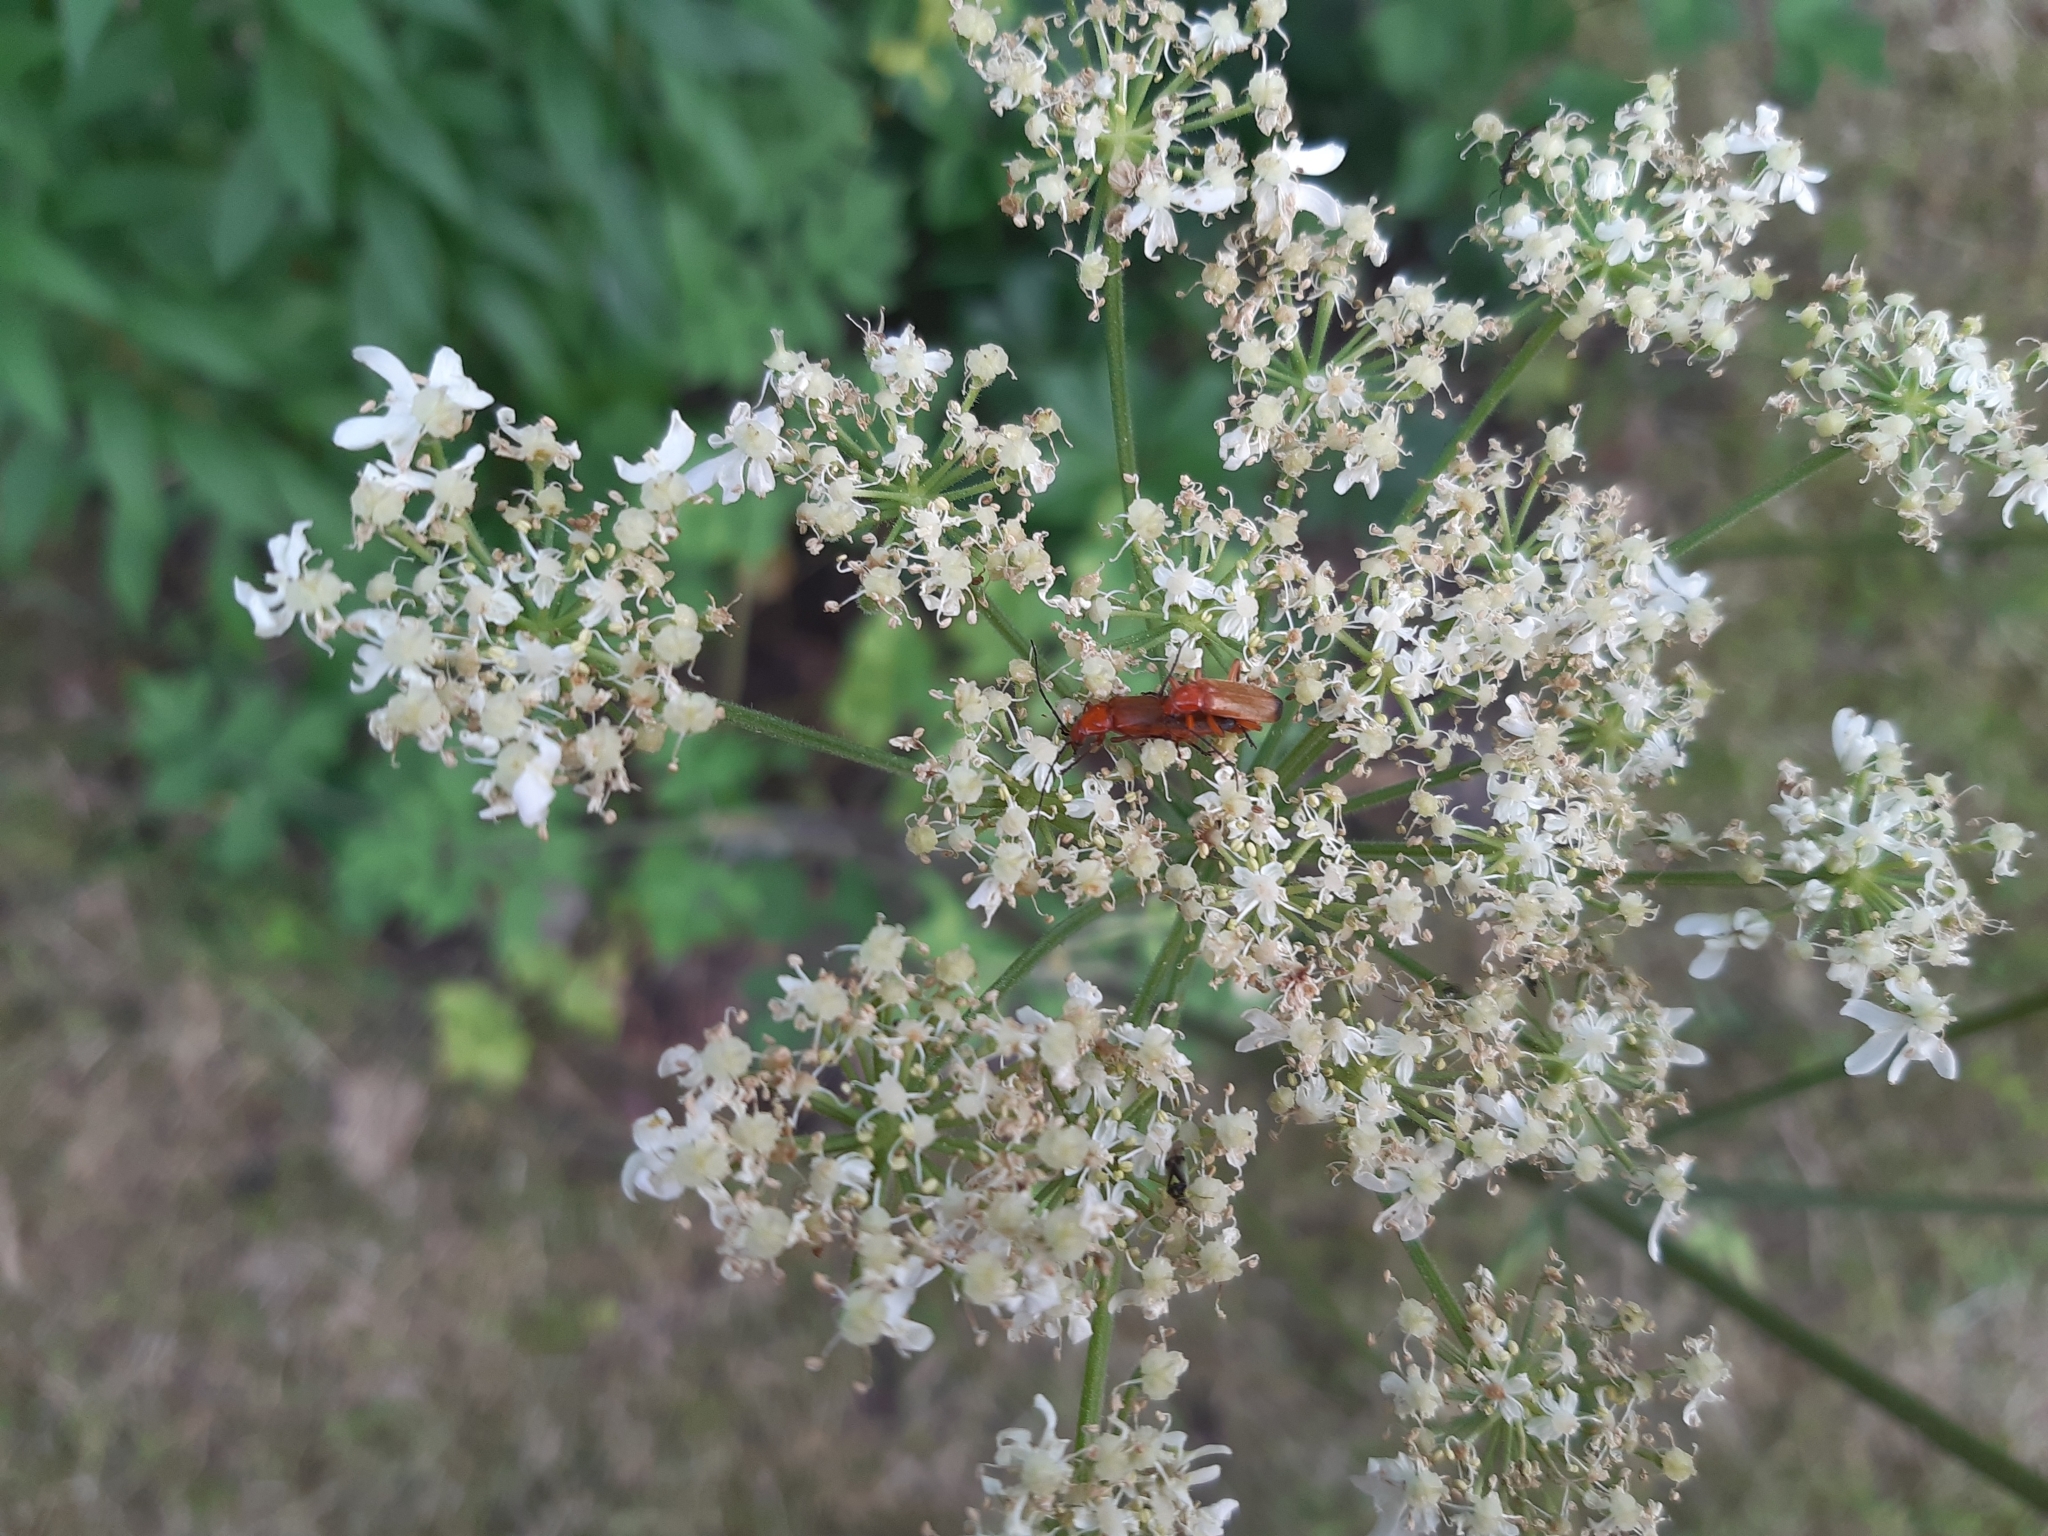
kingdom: Animalia
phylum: Arthropoda
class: Insecta
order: Coleoptera
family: Cantharidae
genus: Rhagonycha
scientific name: Rhagonycha fulva
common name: Common red soldier beetle
